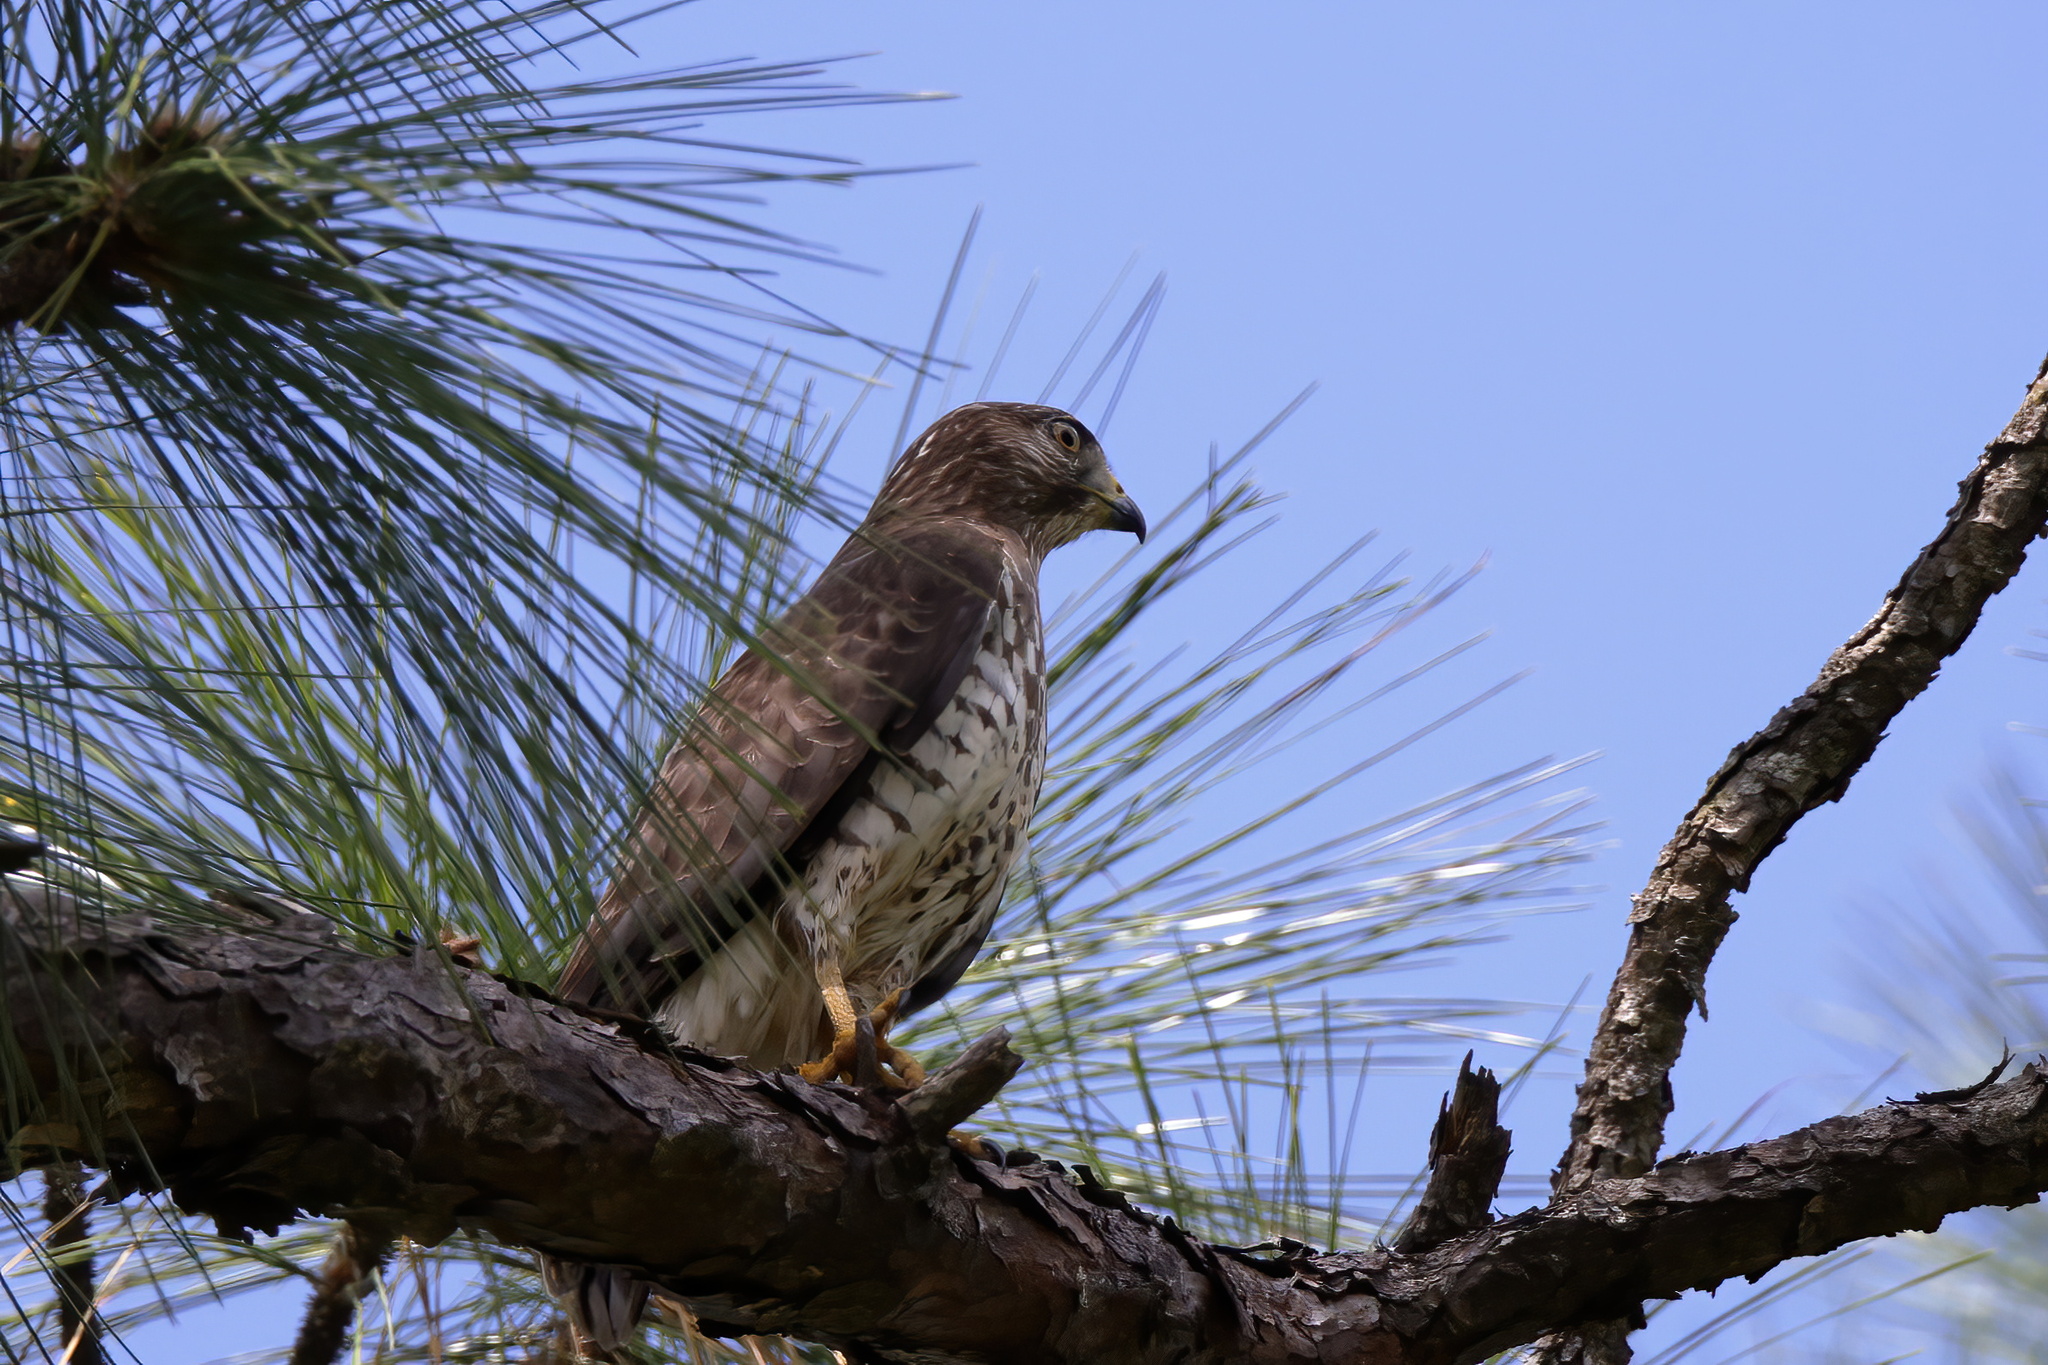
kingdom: Animalia
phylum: Chordata
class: Aves
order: Accipitriformes
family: Accipitridae
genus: Buteo
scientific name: Buteo platypterus
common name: Broad-winged hawk
